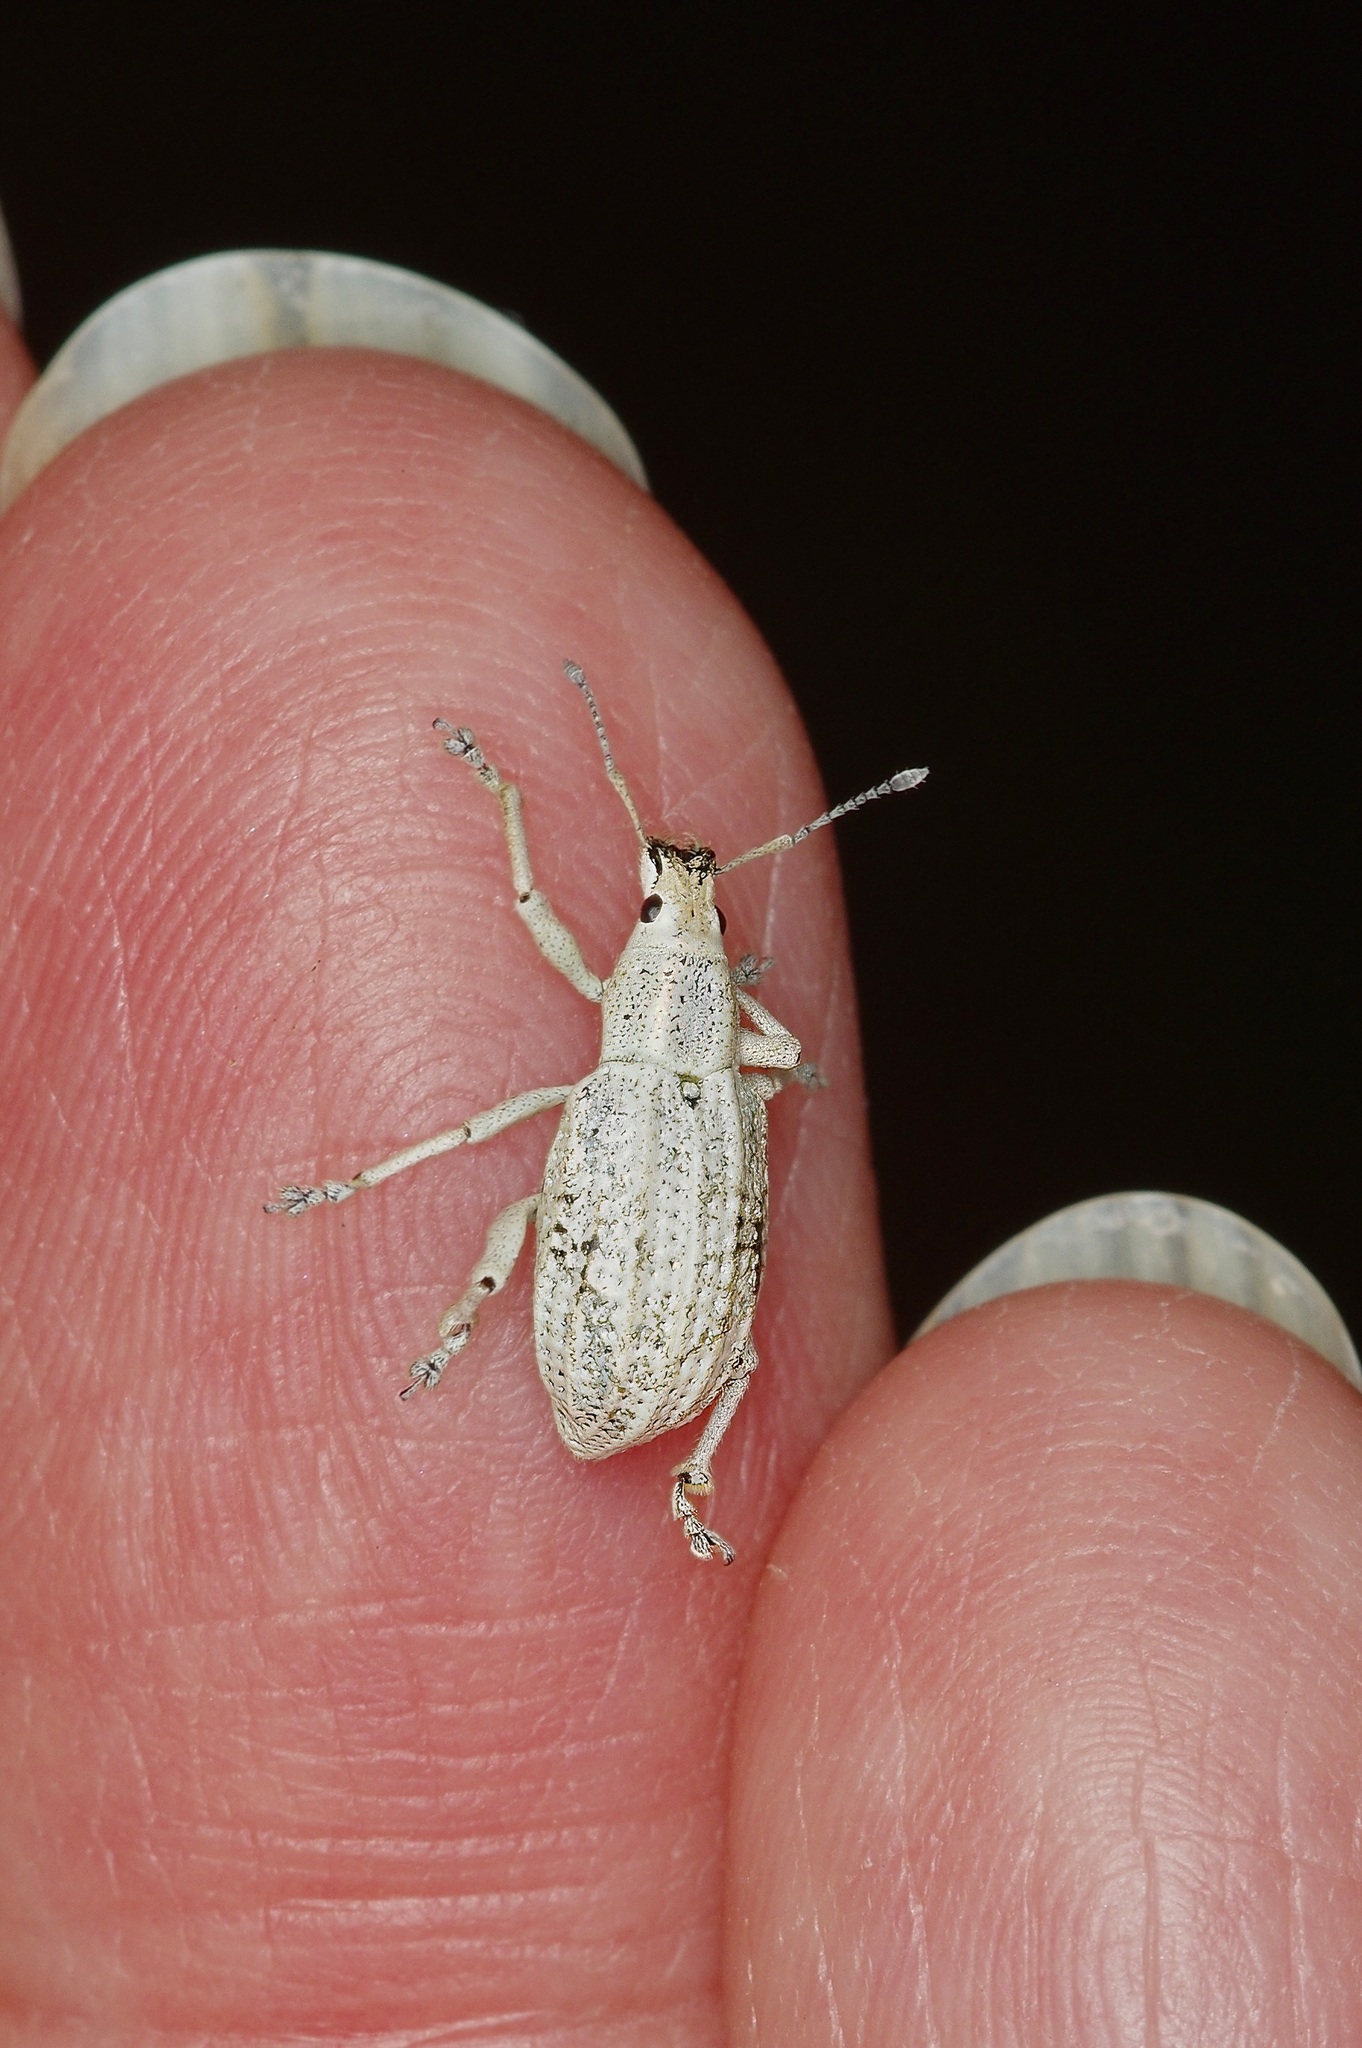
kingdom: Animalia
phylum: Arthropoda
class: Insecta
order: Coleoptera
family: Curculionidae
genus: Compsus
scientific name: Compsus auricephalus
